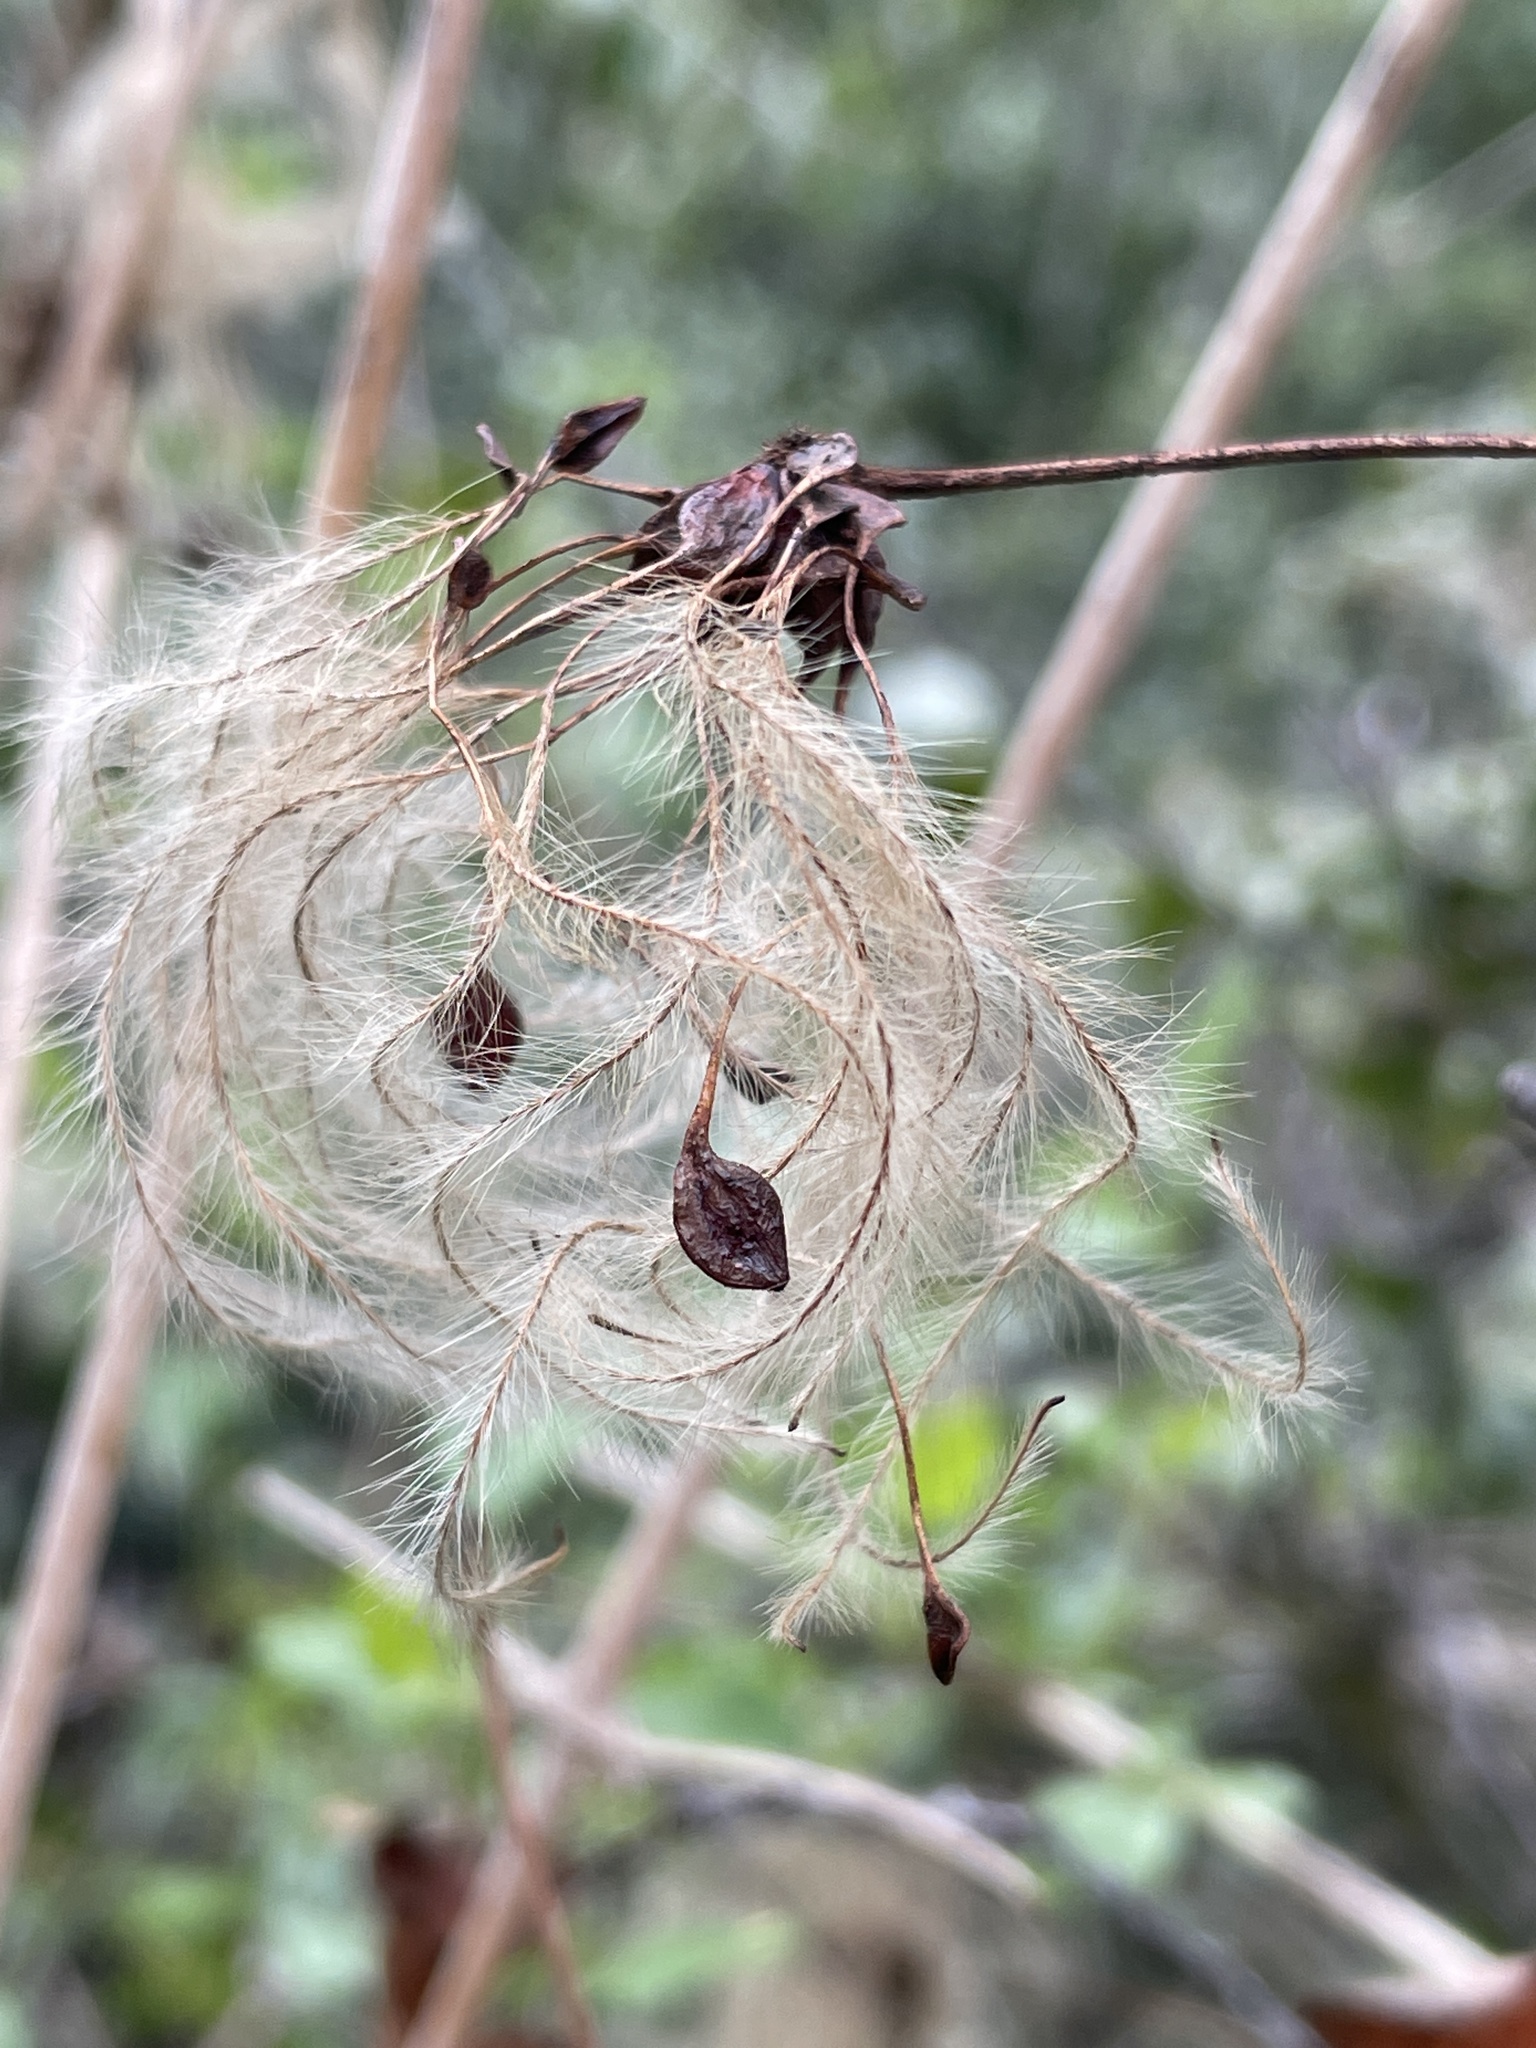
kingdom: Plantae
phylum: Tracheophyta
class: Magnoliopsida
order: Ranunculales
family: Ranunculaceae
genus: Clematis
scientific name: Clematis pauciflora
